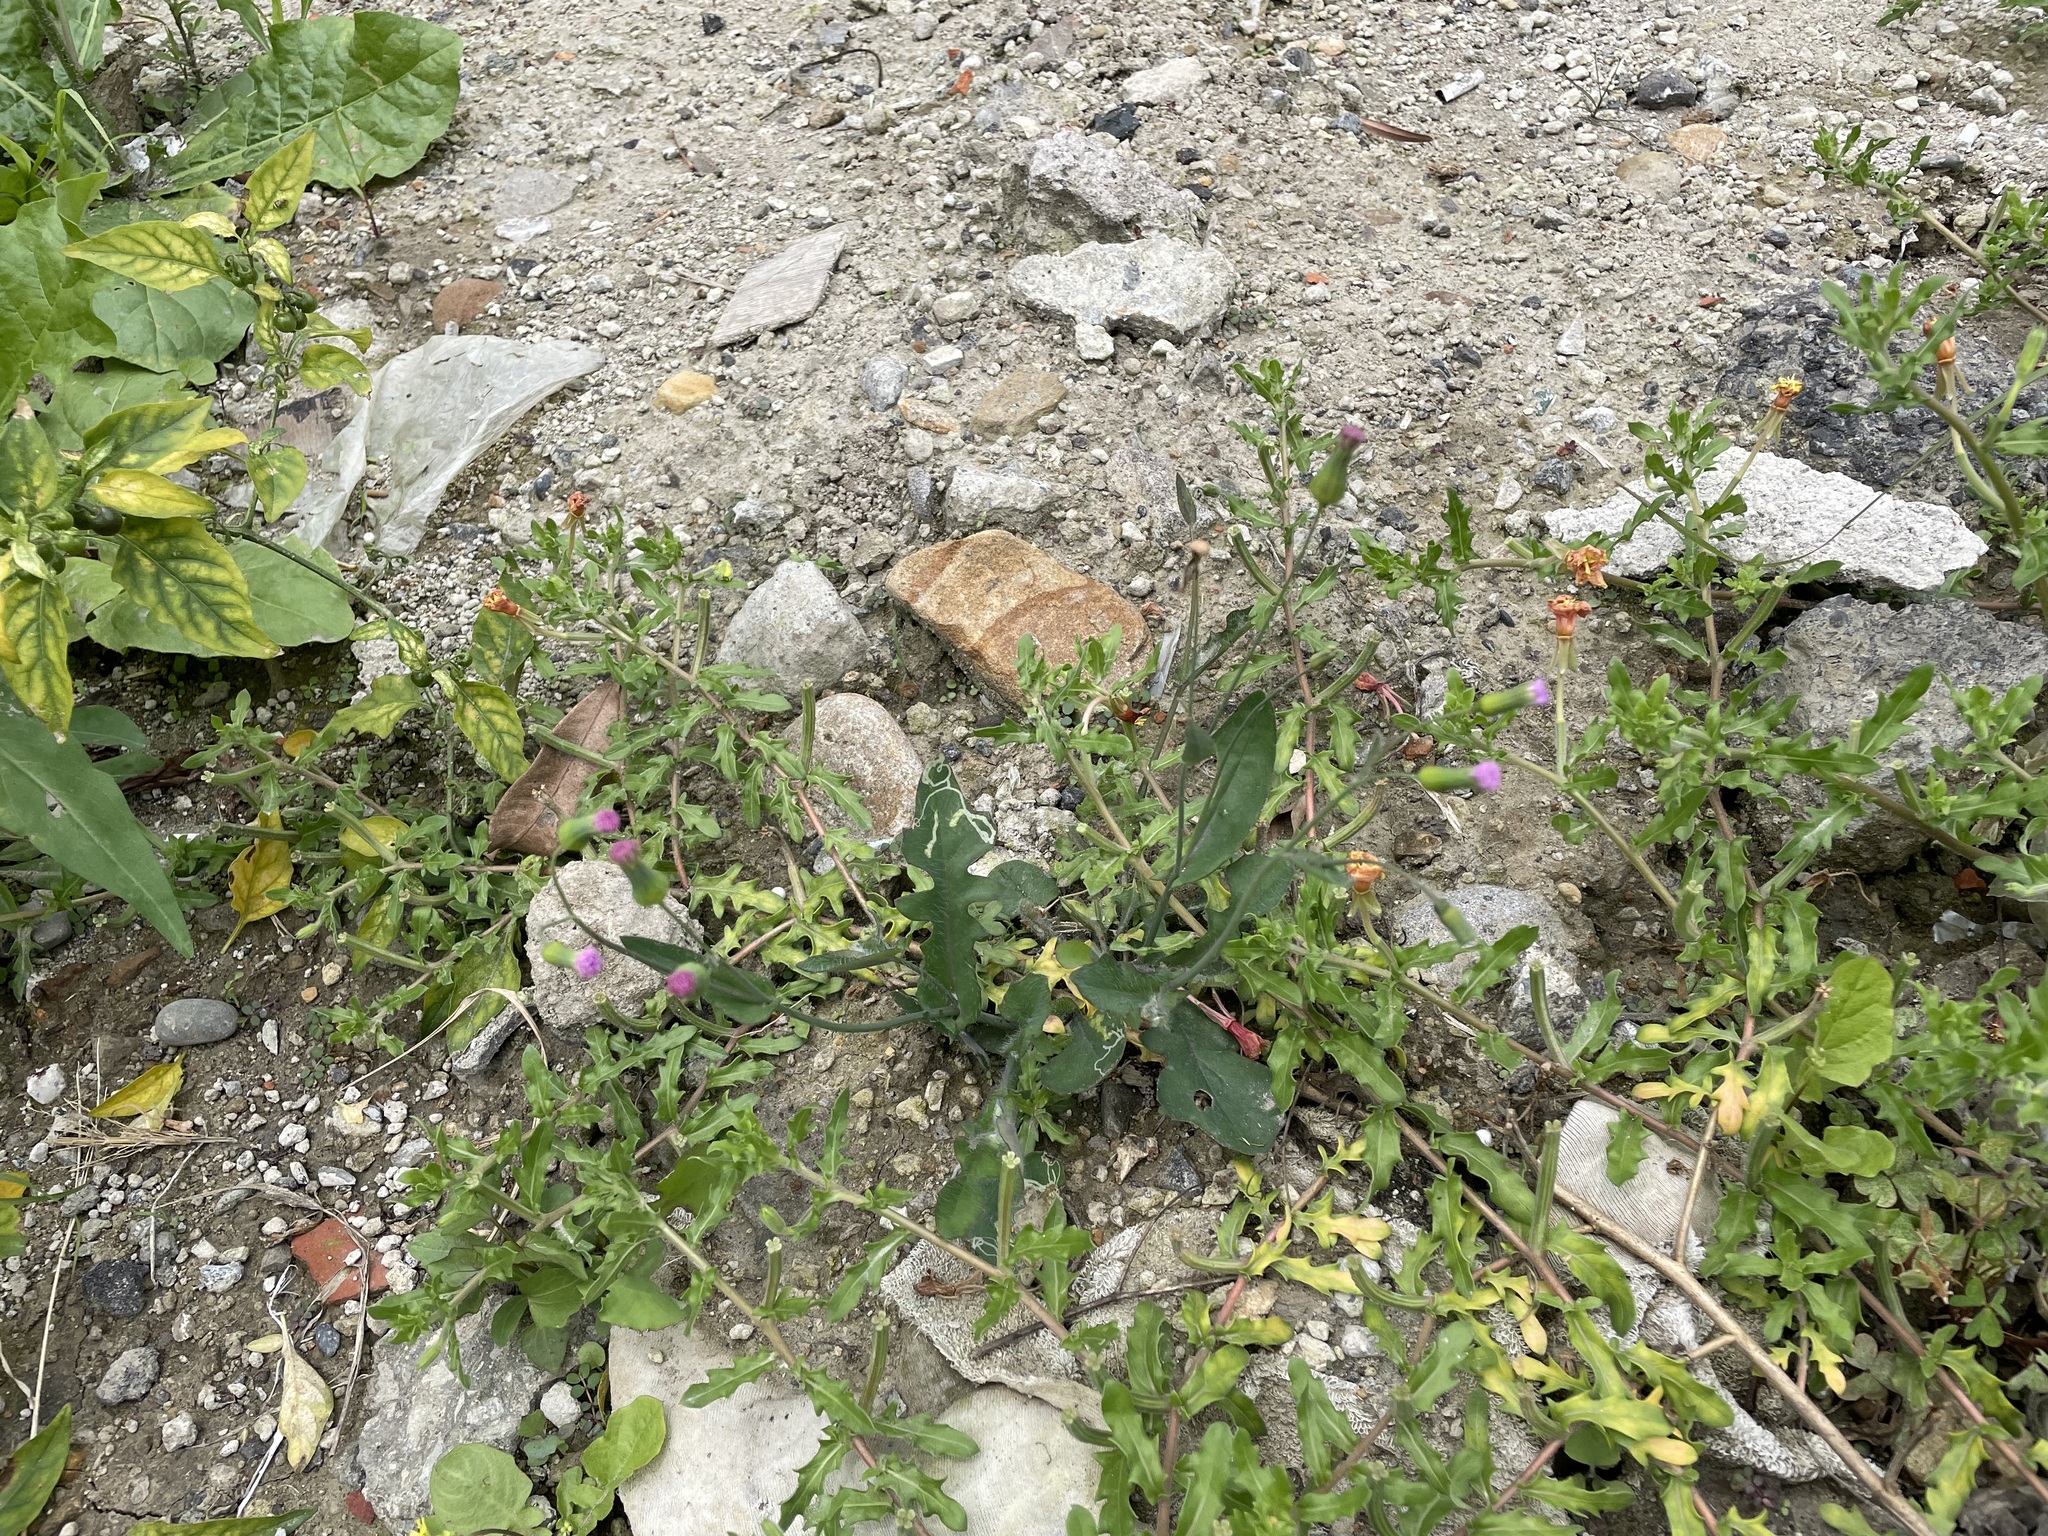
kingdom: Plantae
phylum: Tracheophyta
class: Magnoliopsida
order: Asterales
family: Asteraceae
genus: Emilia
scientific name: Emilia javanica
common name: Tassel-flower
